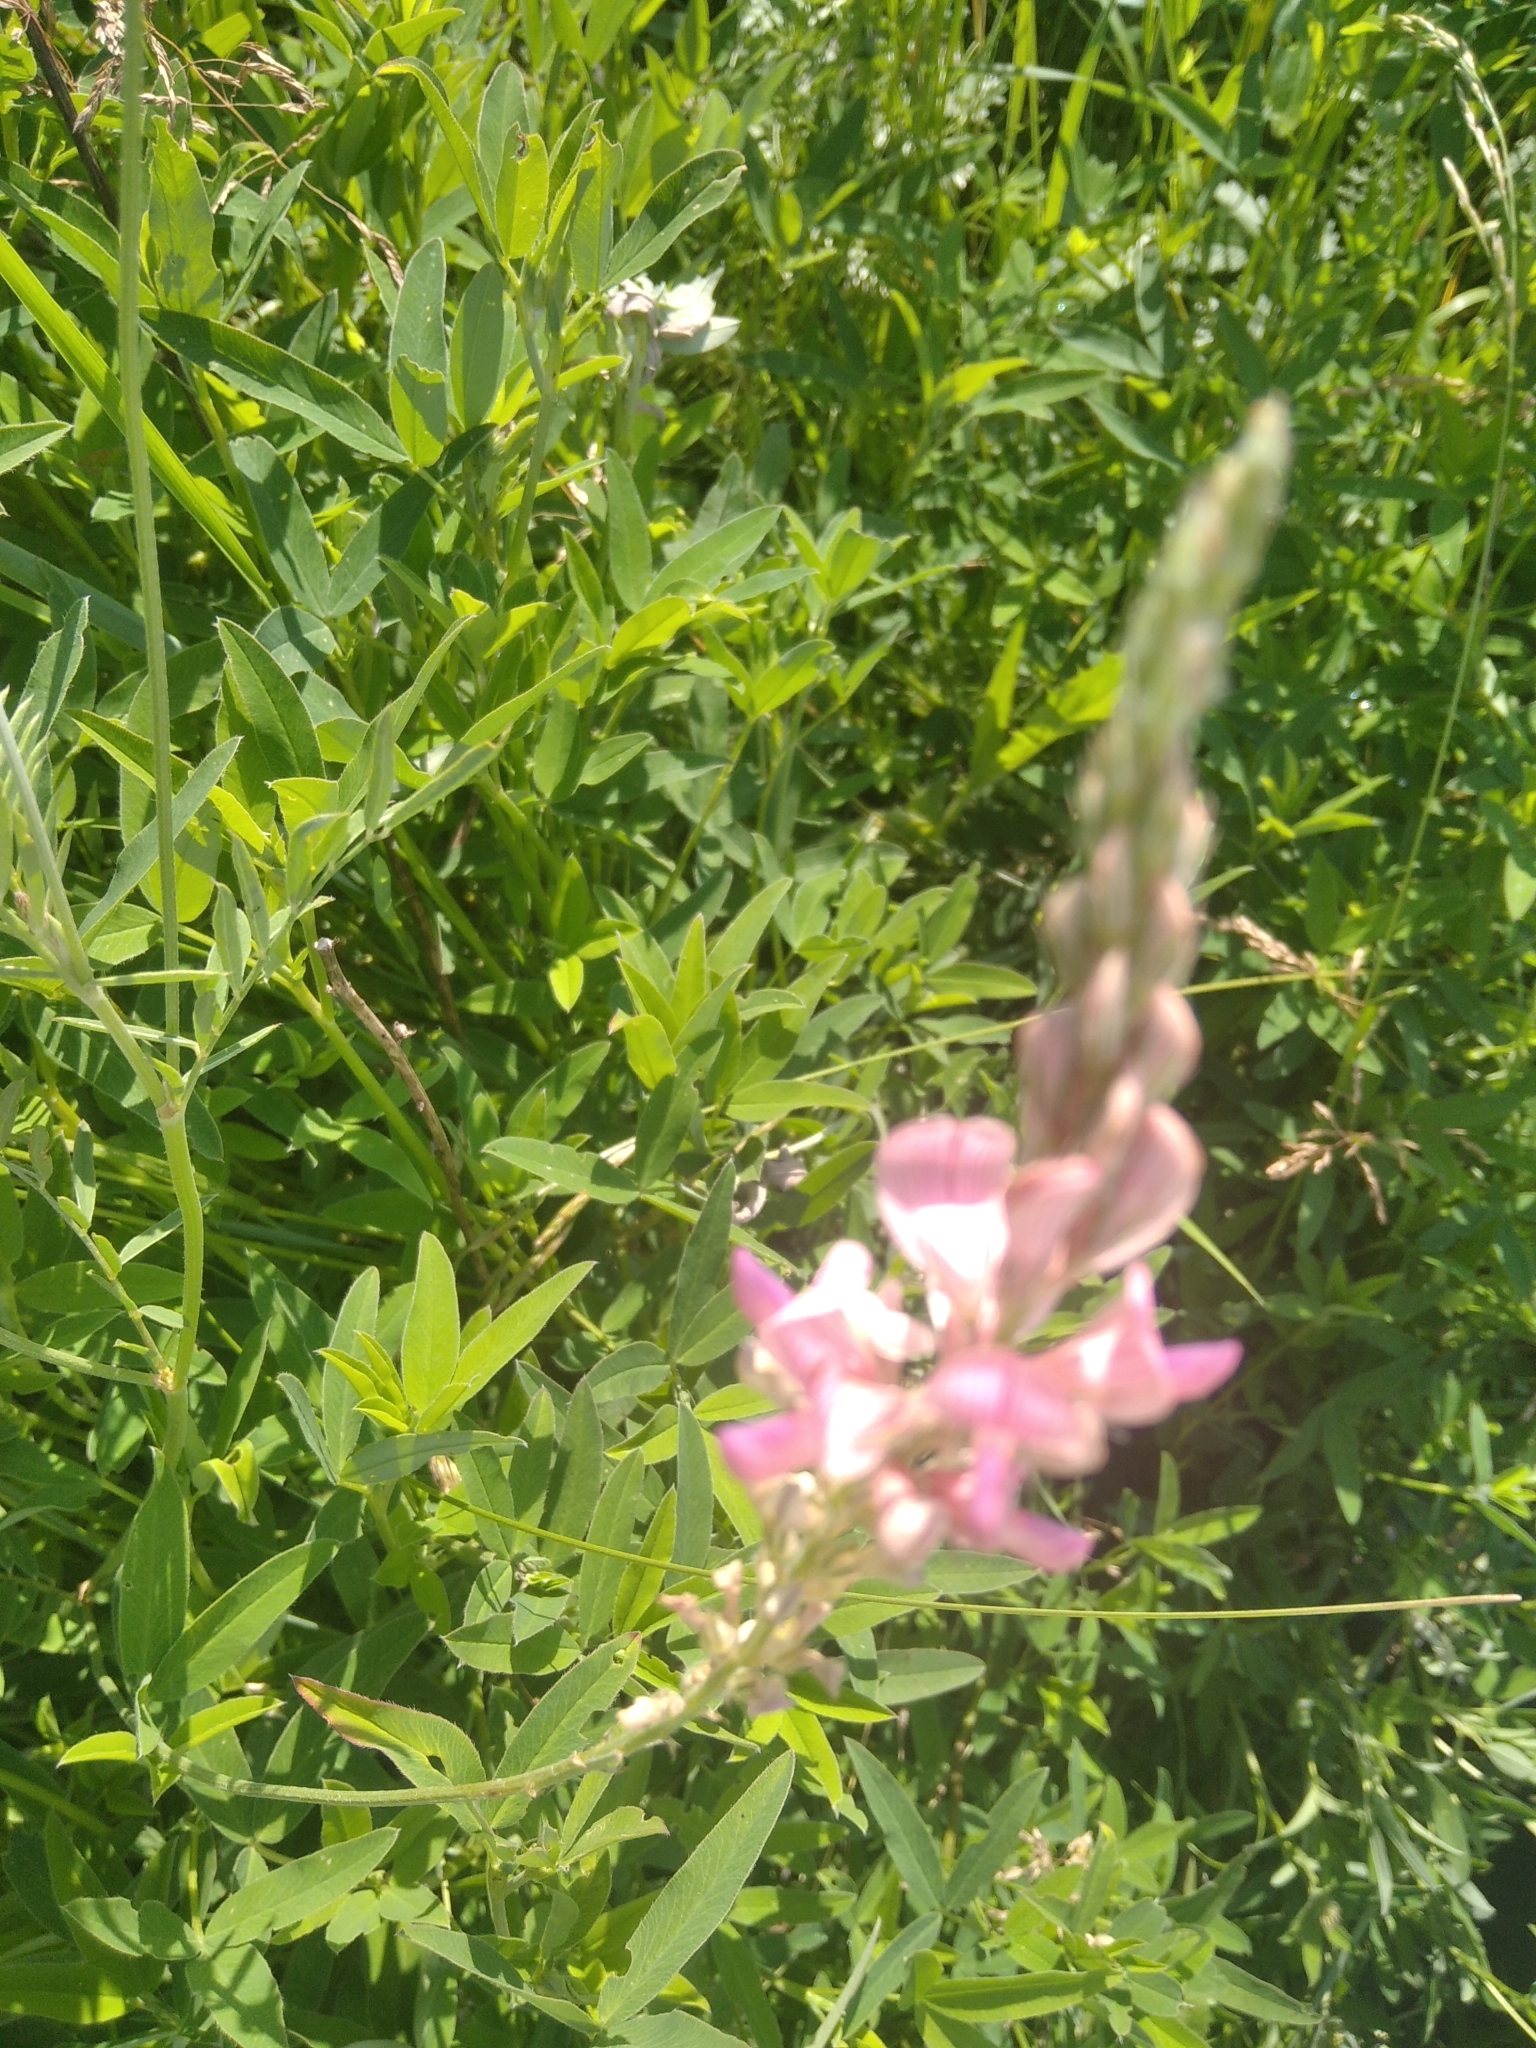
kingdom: Plantae
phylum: Tracheophyta
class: Magnoliopsida
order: Fabales
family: Fabaceae
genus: Onobrychis
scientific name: Onobrychis viciifolia
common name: Sainfoin
